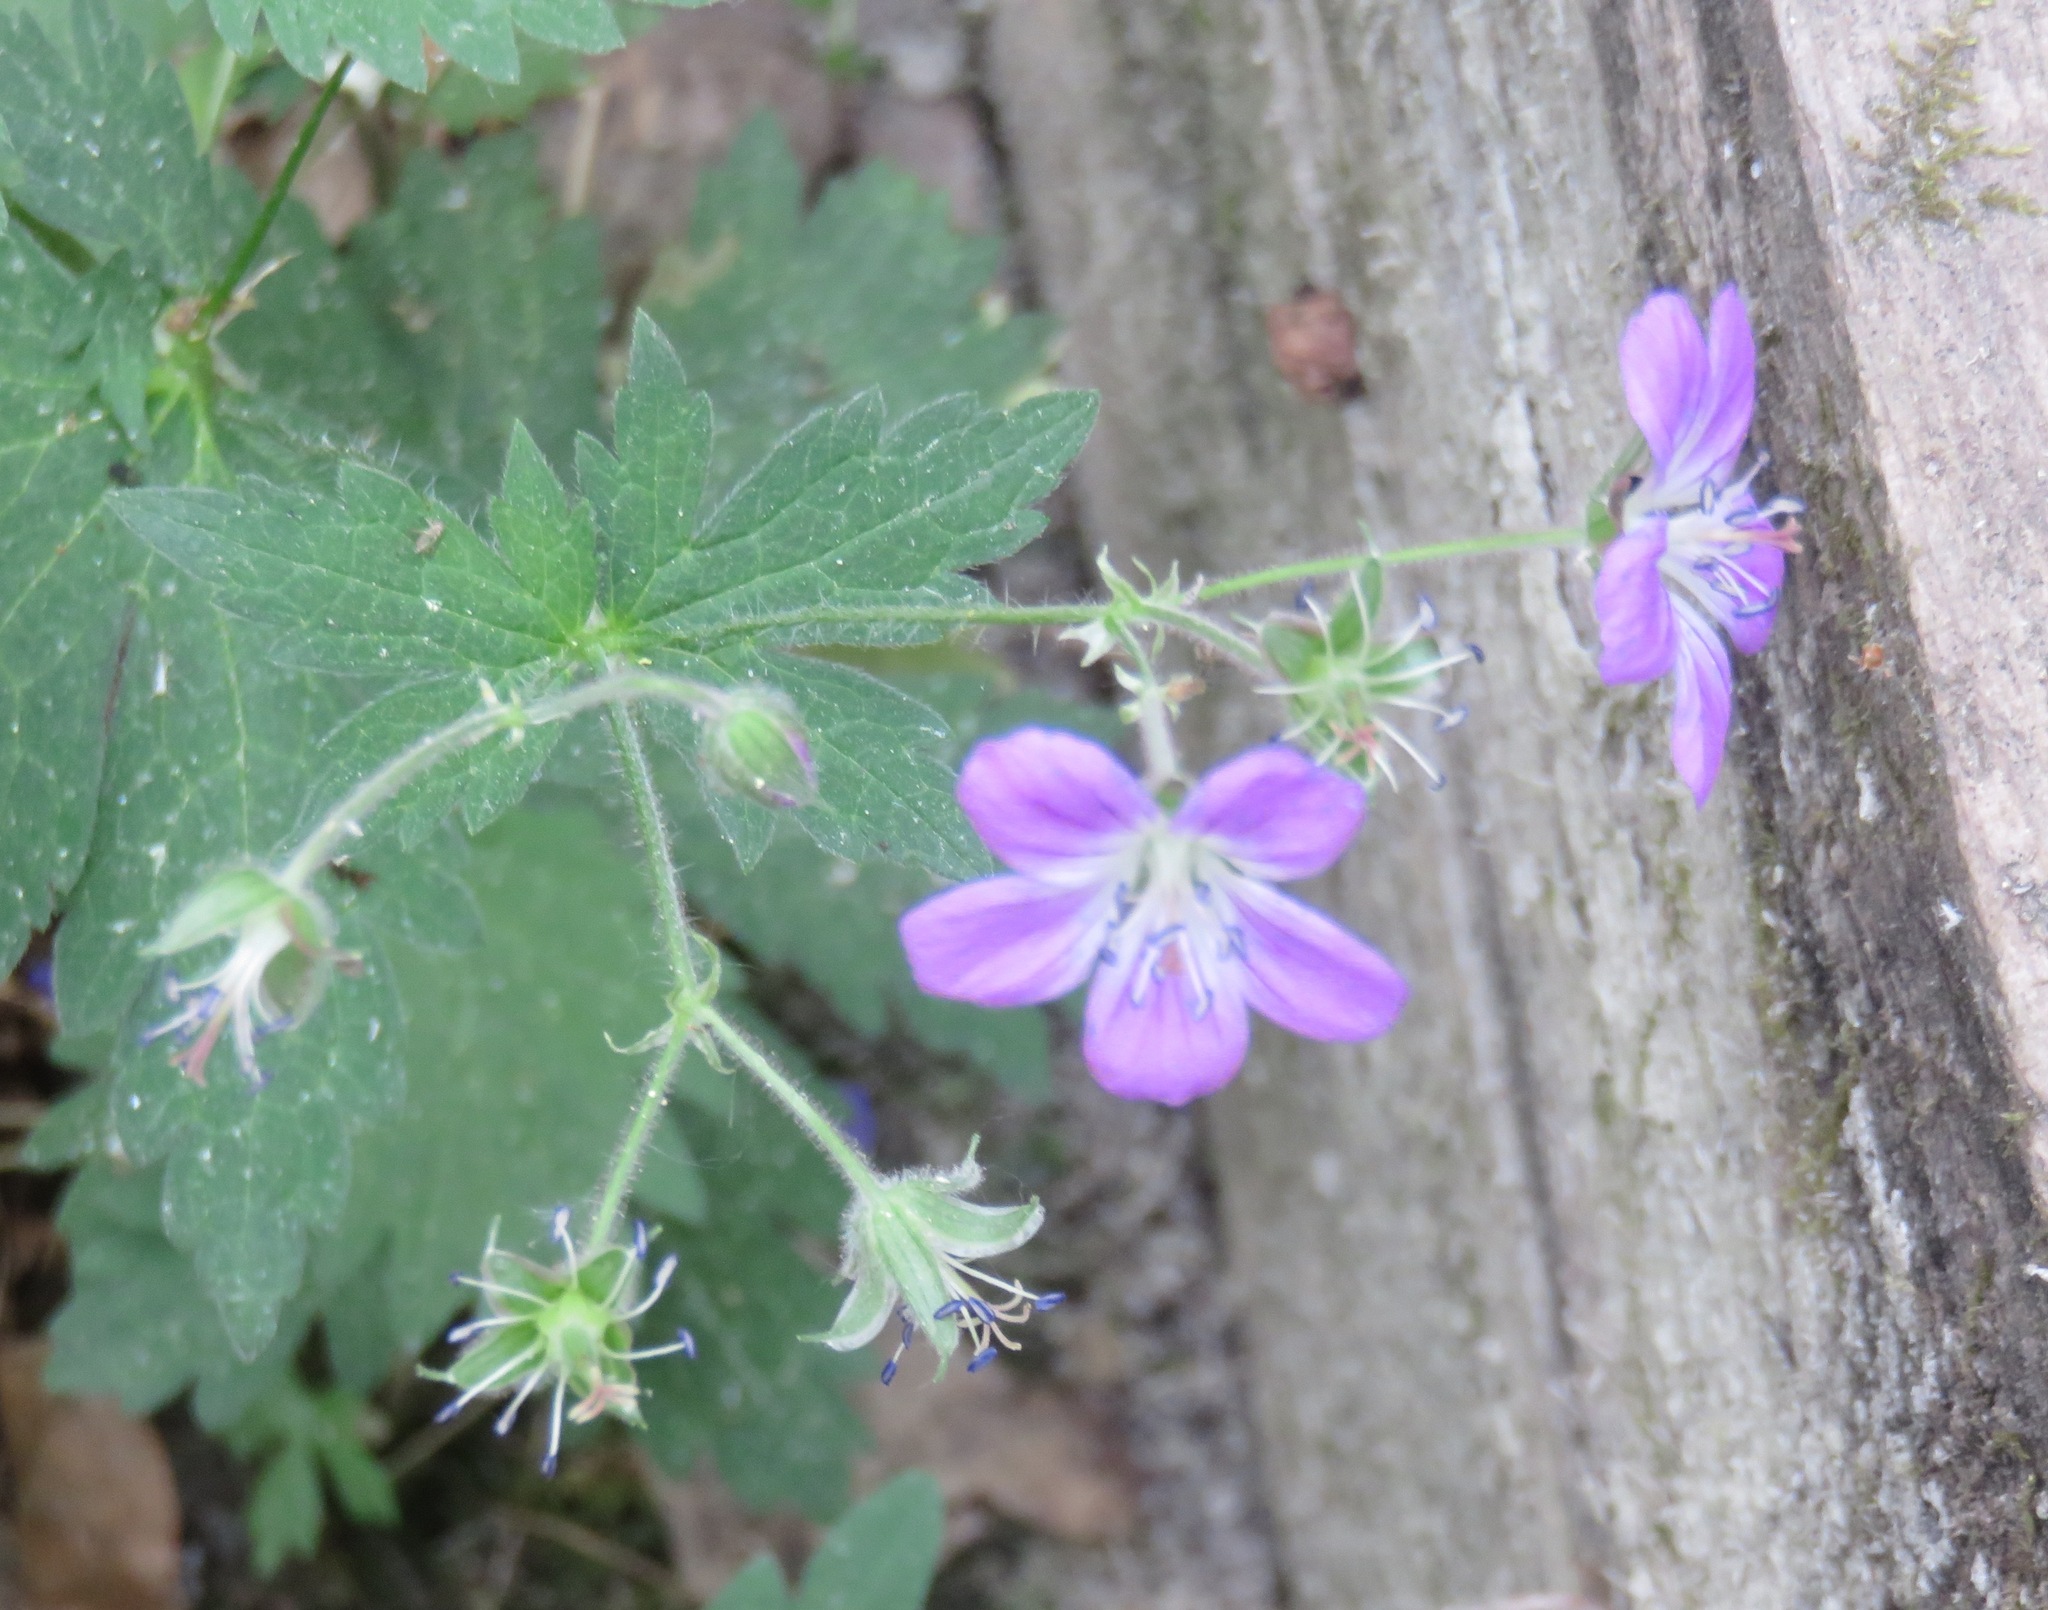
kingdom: Plantae
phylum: Tracheophyta
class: Magnoliopsida
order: Geraniales
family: Geraniaceae
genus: Geranium
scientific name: Geranium sylvaticum
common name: Wood crane's-bill
